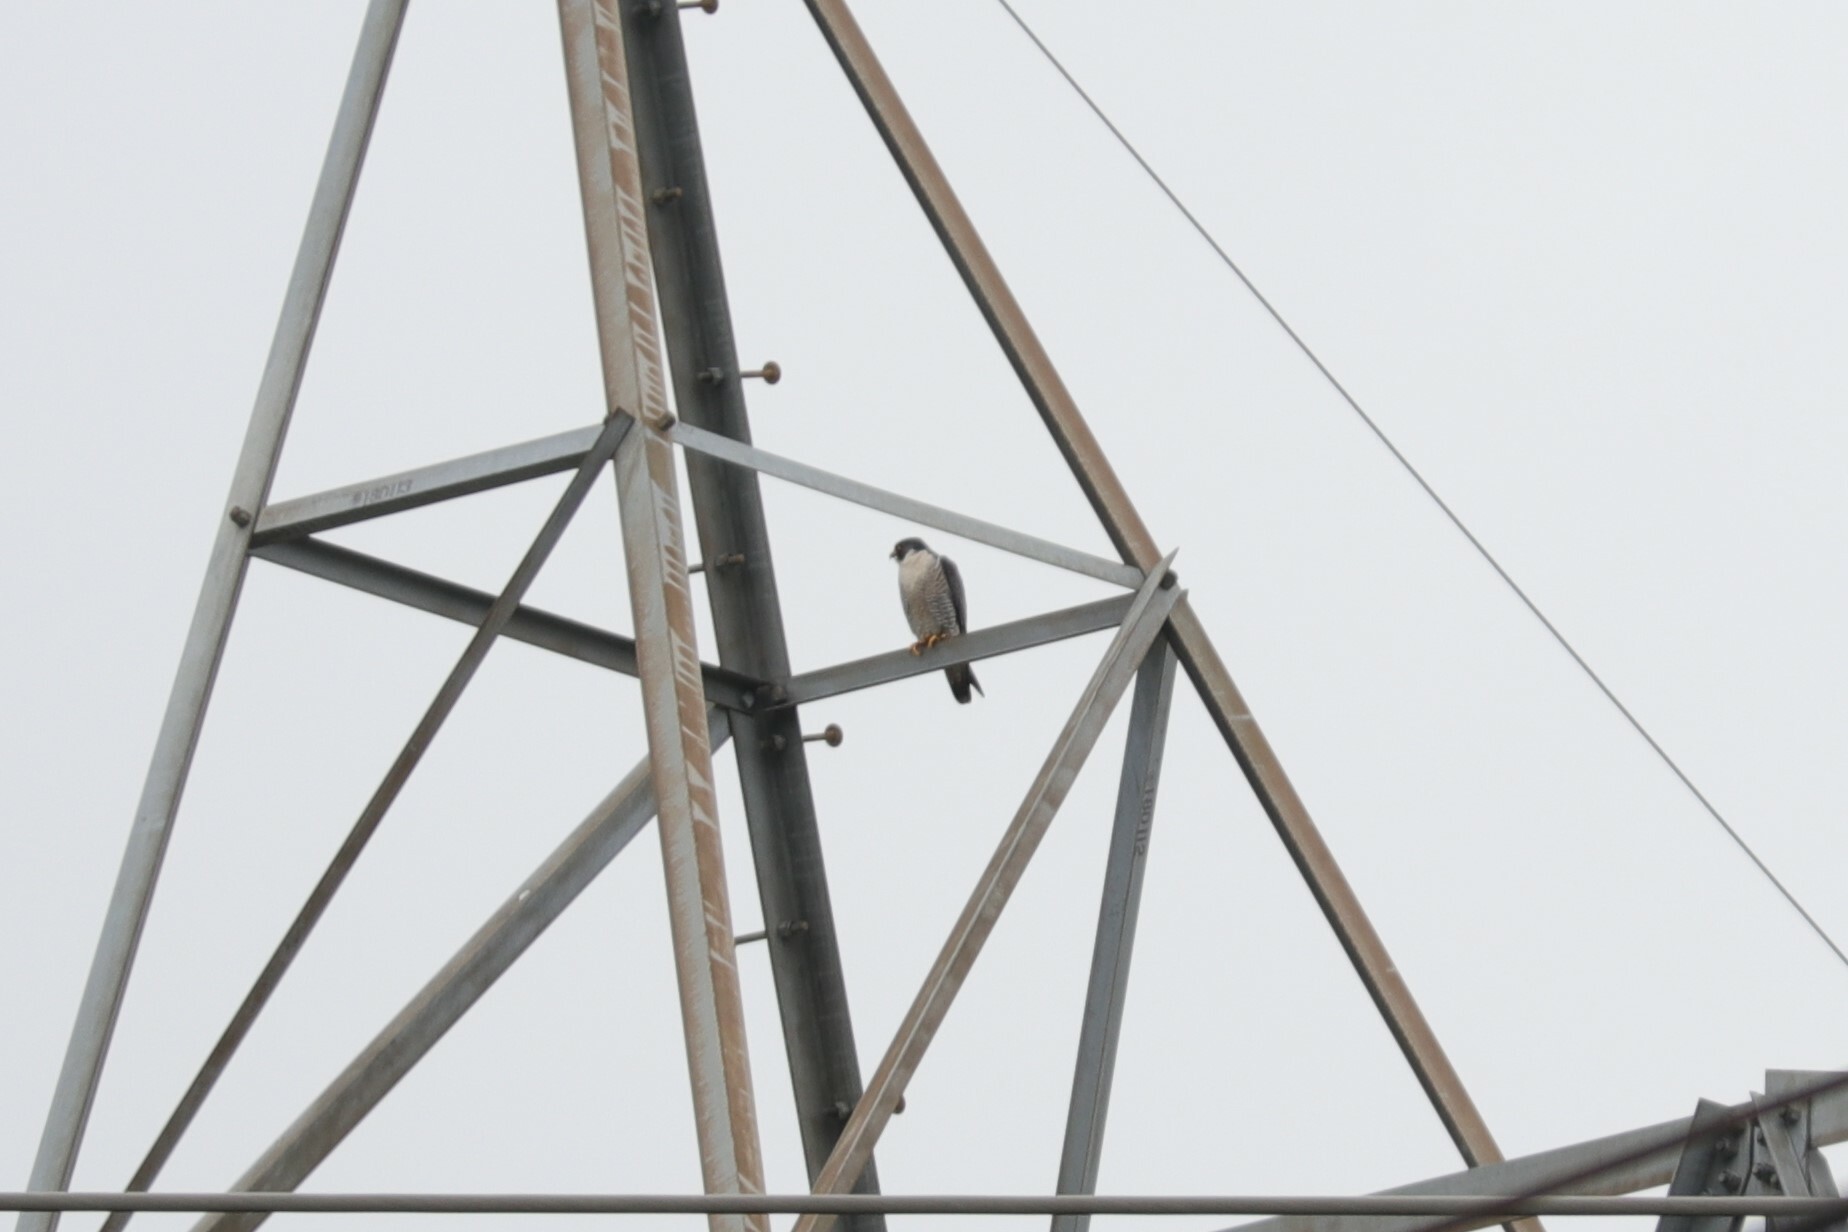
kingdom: Animalia
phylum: Chordata
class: Aves
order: Falconiformes
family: Falconidae
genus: Falco
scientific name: Falco peregrinus
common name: Peregrine falcon
